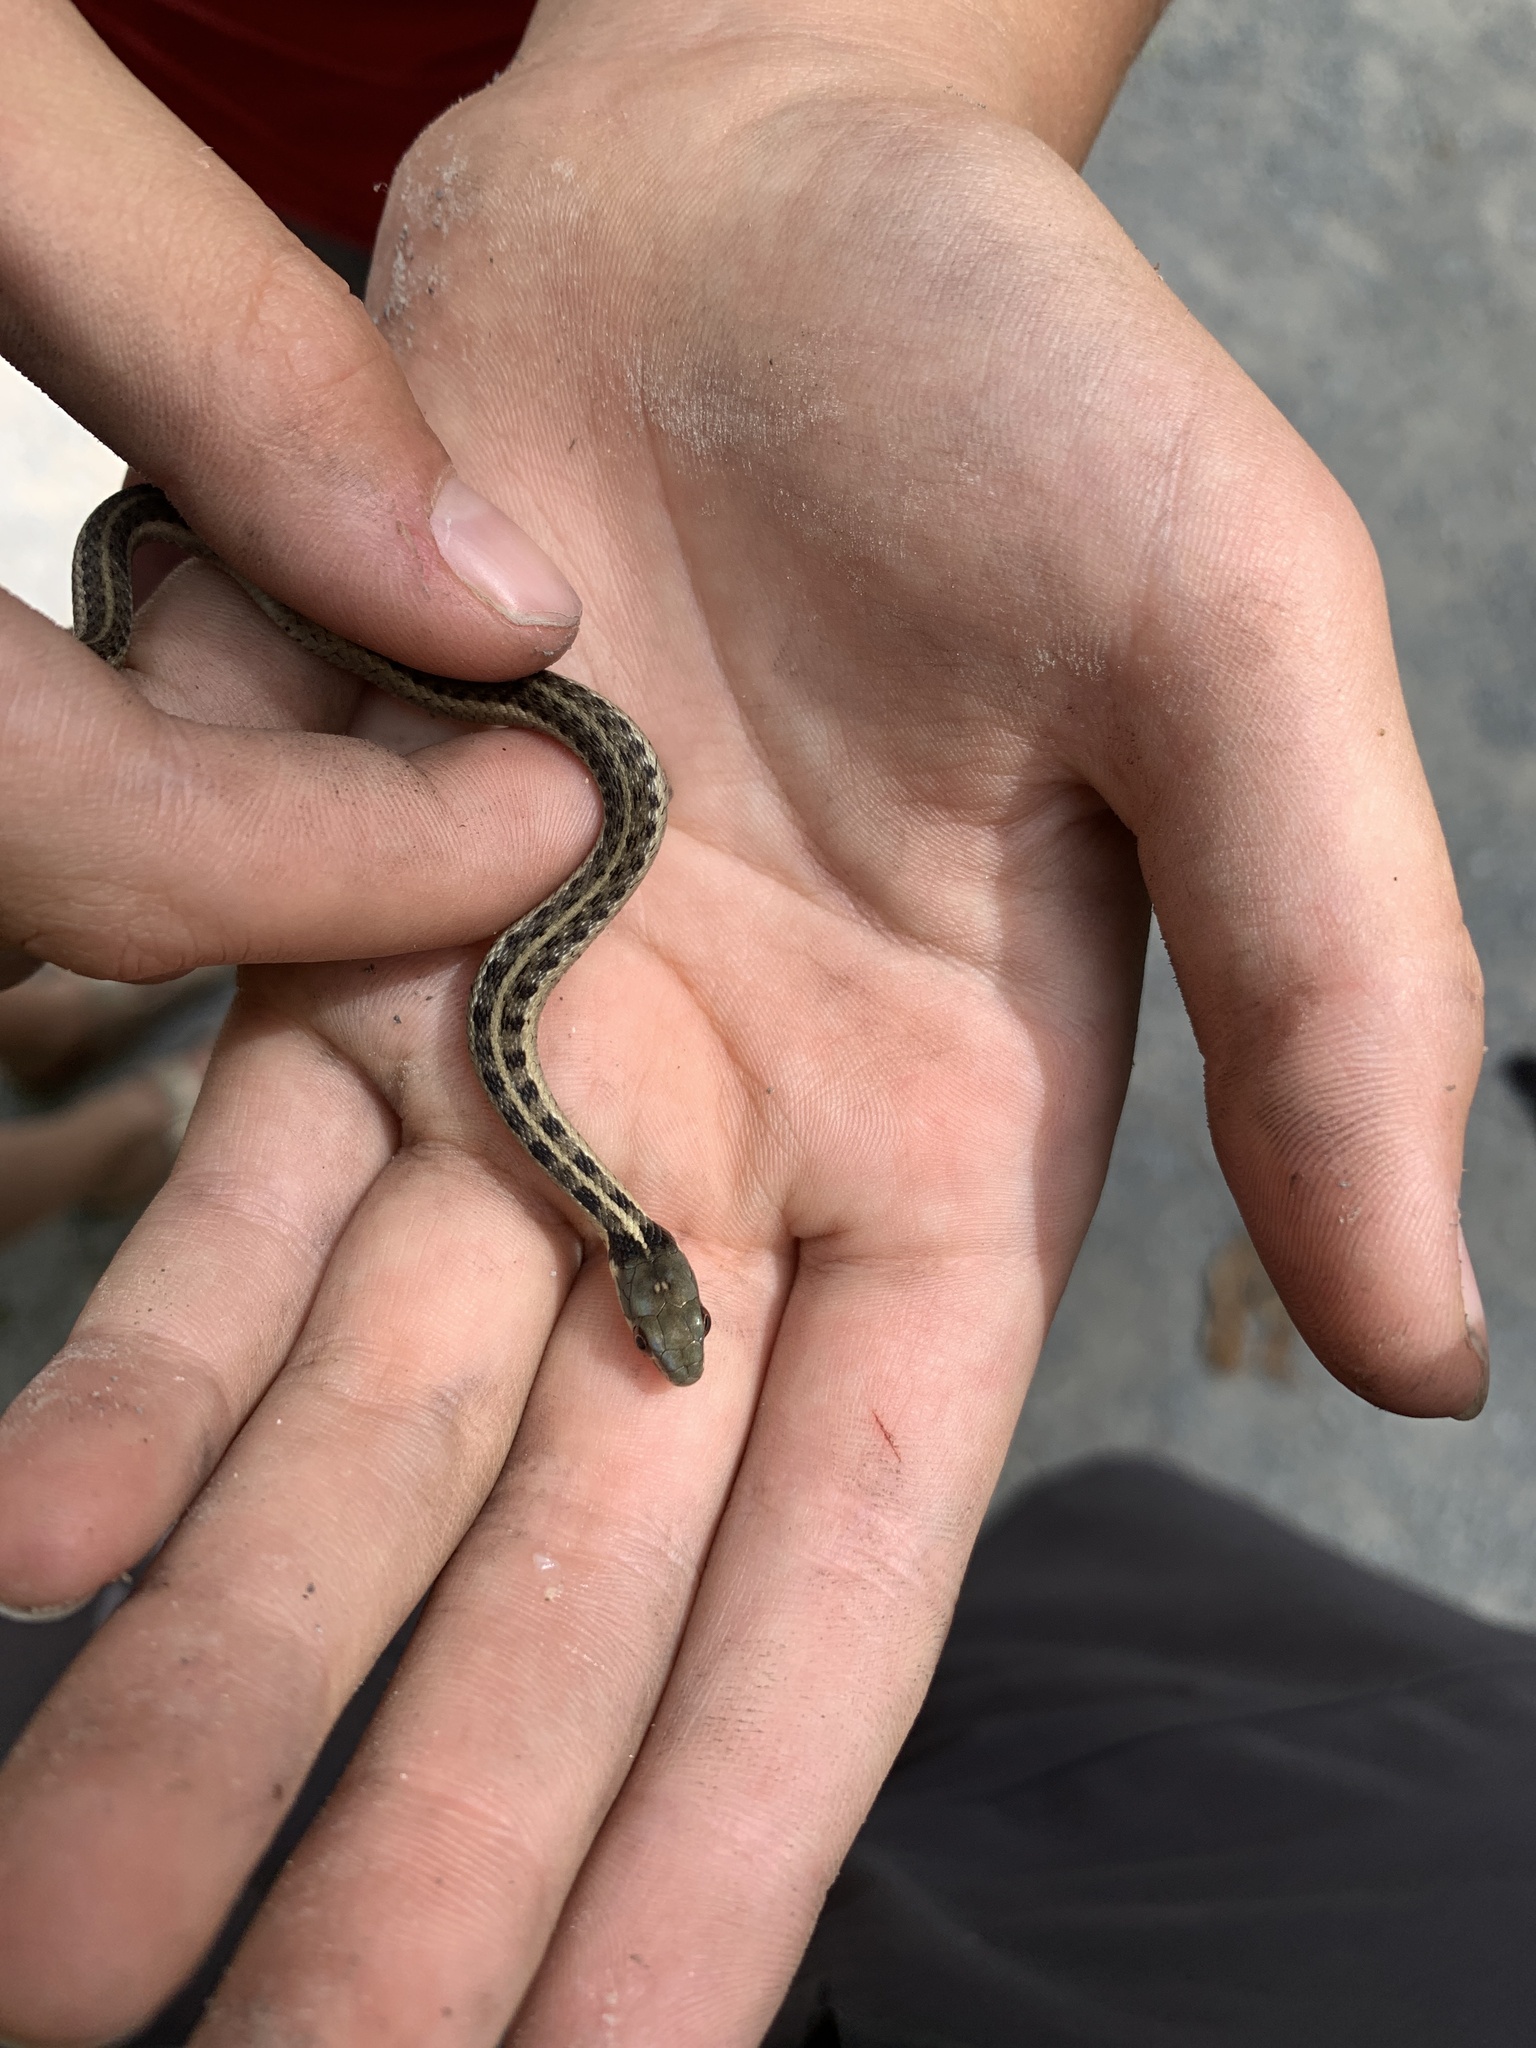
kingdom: Animalia
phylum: Chordata
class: Squamata
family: Colubridae
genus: Thamnophis
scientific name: Thamnophis sirtalis
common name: Common garter snake
